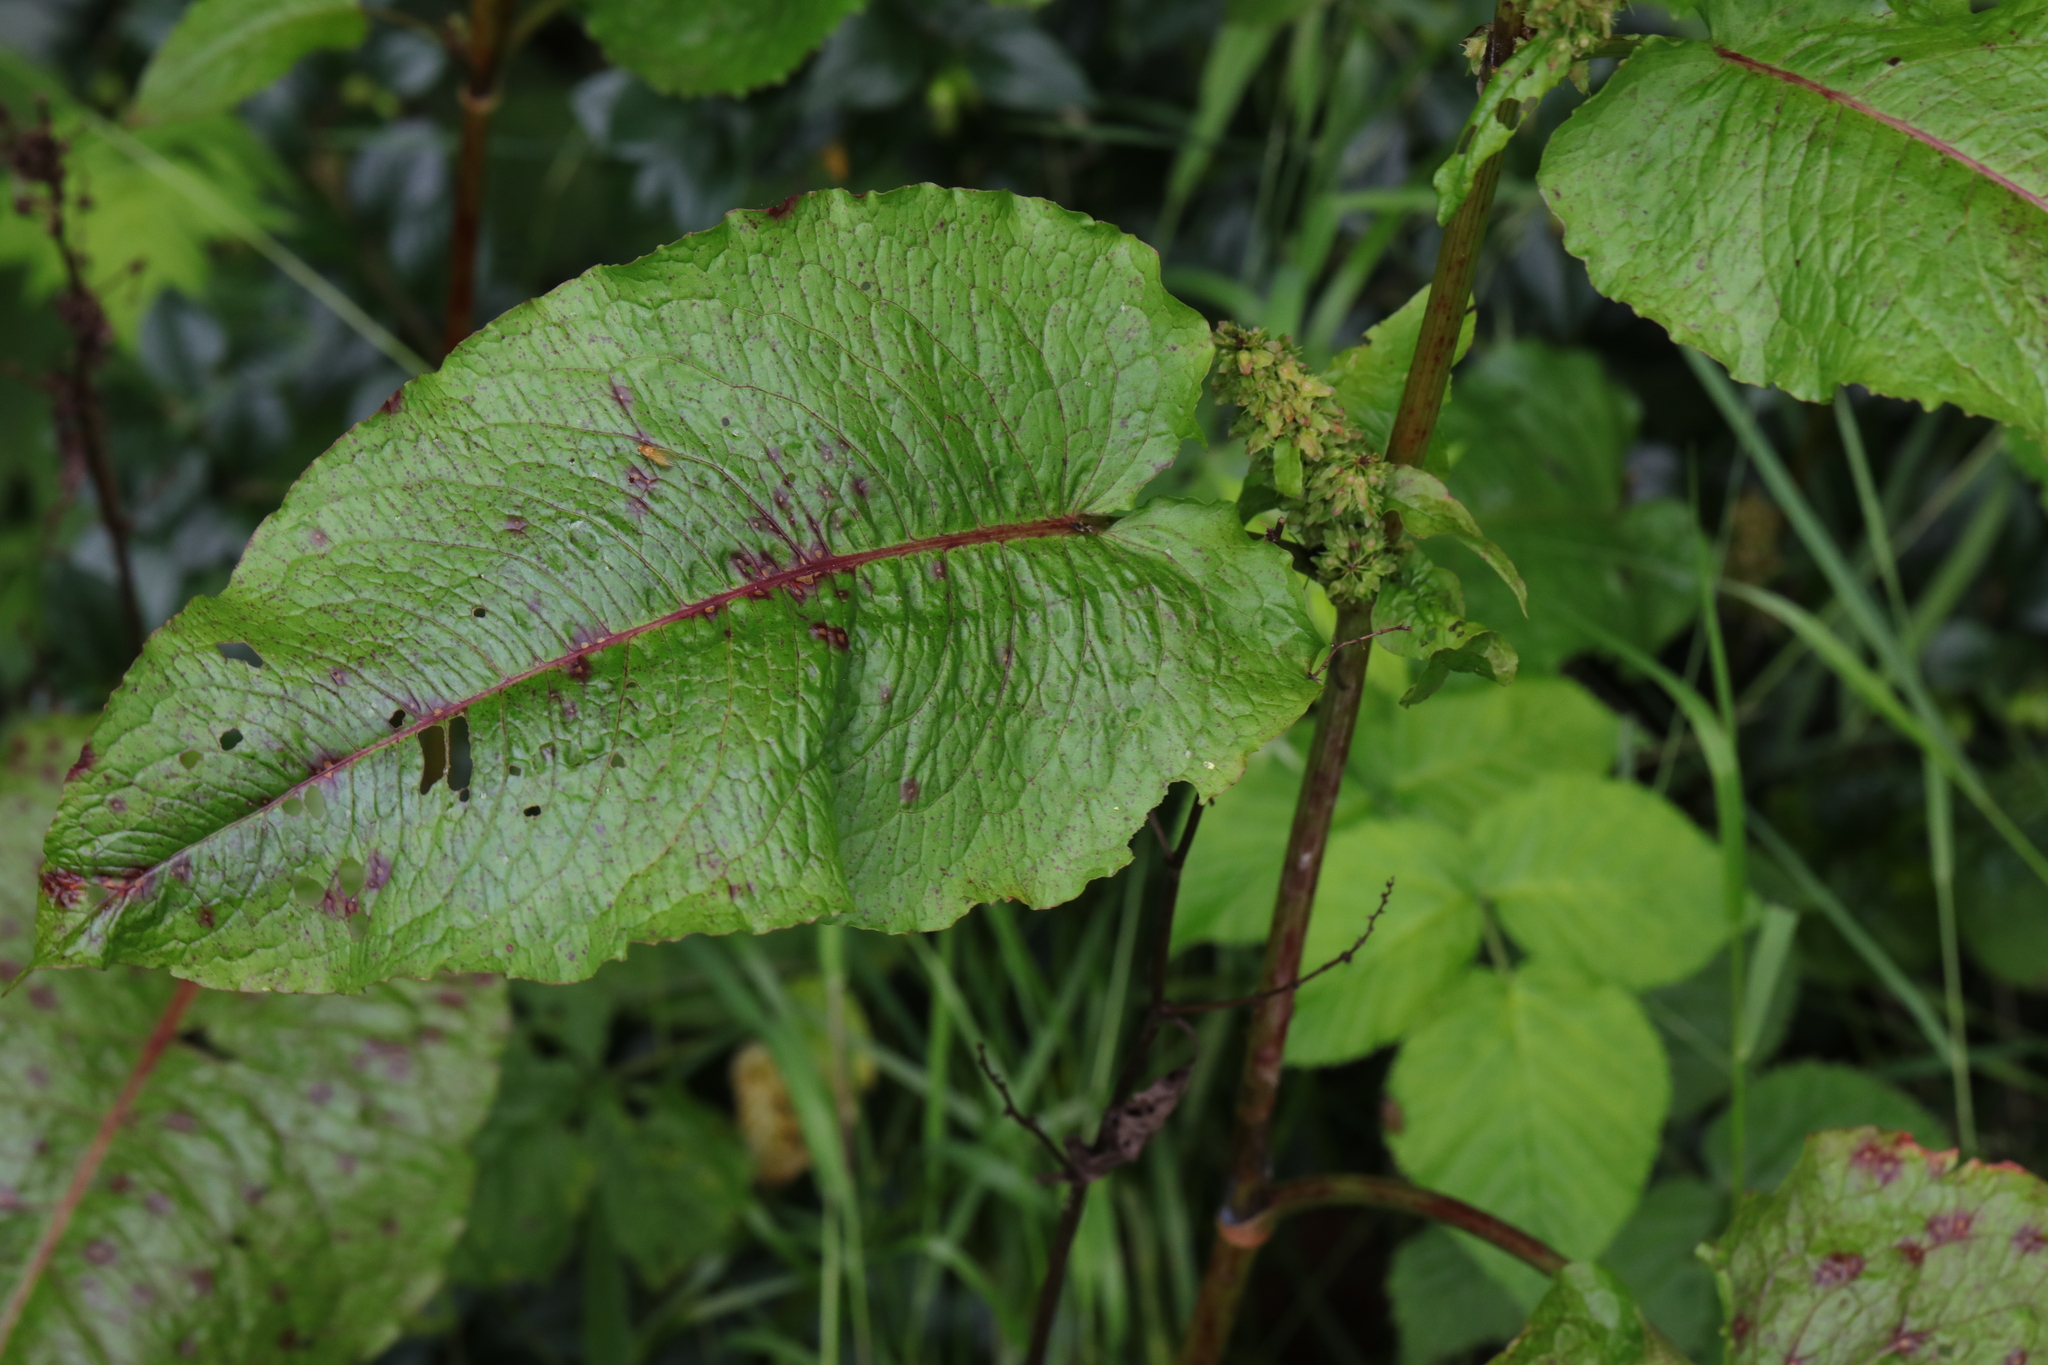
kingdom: Plantae
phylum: Tracheophyta
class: Magnoliopsida
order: Caryophyllales
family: Polygonaceae
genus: Rumex
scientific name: Rumex obtusifolius
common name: Bitter dock
